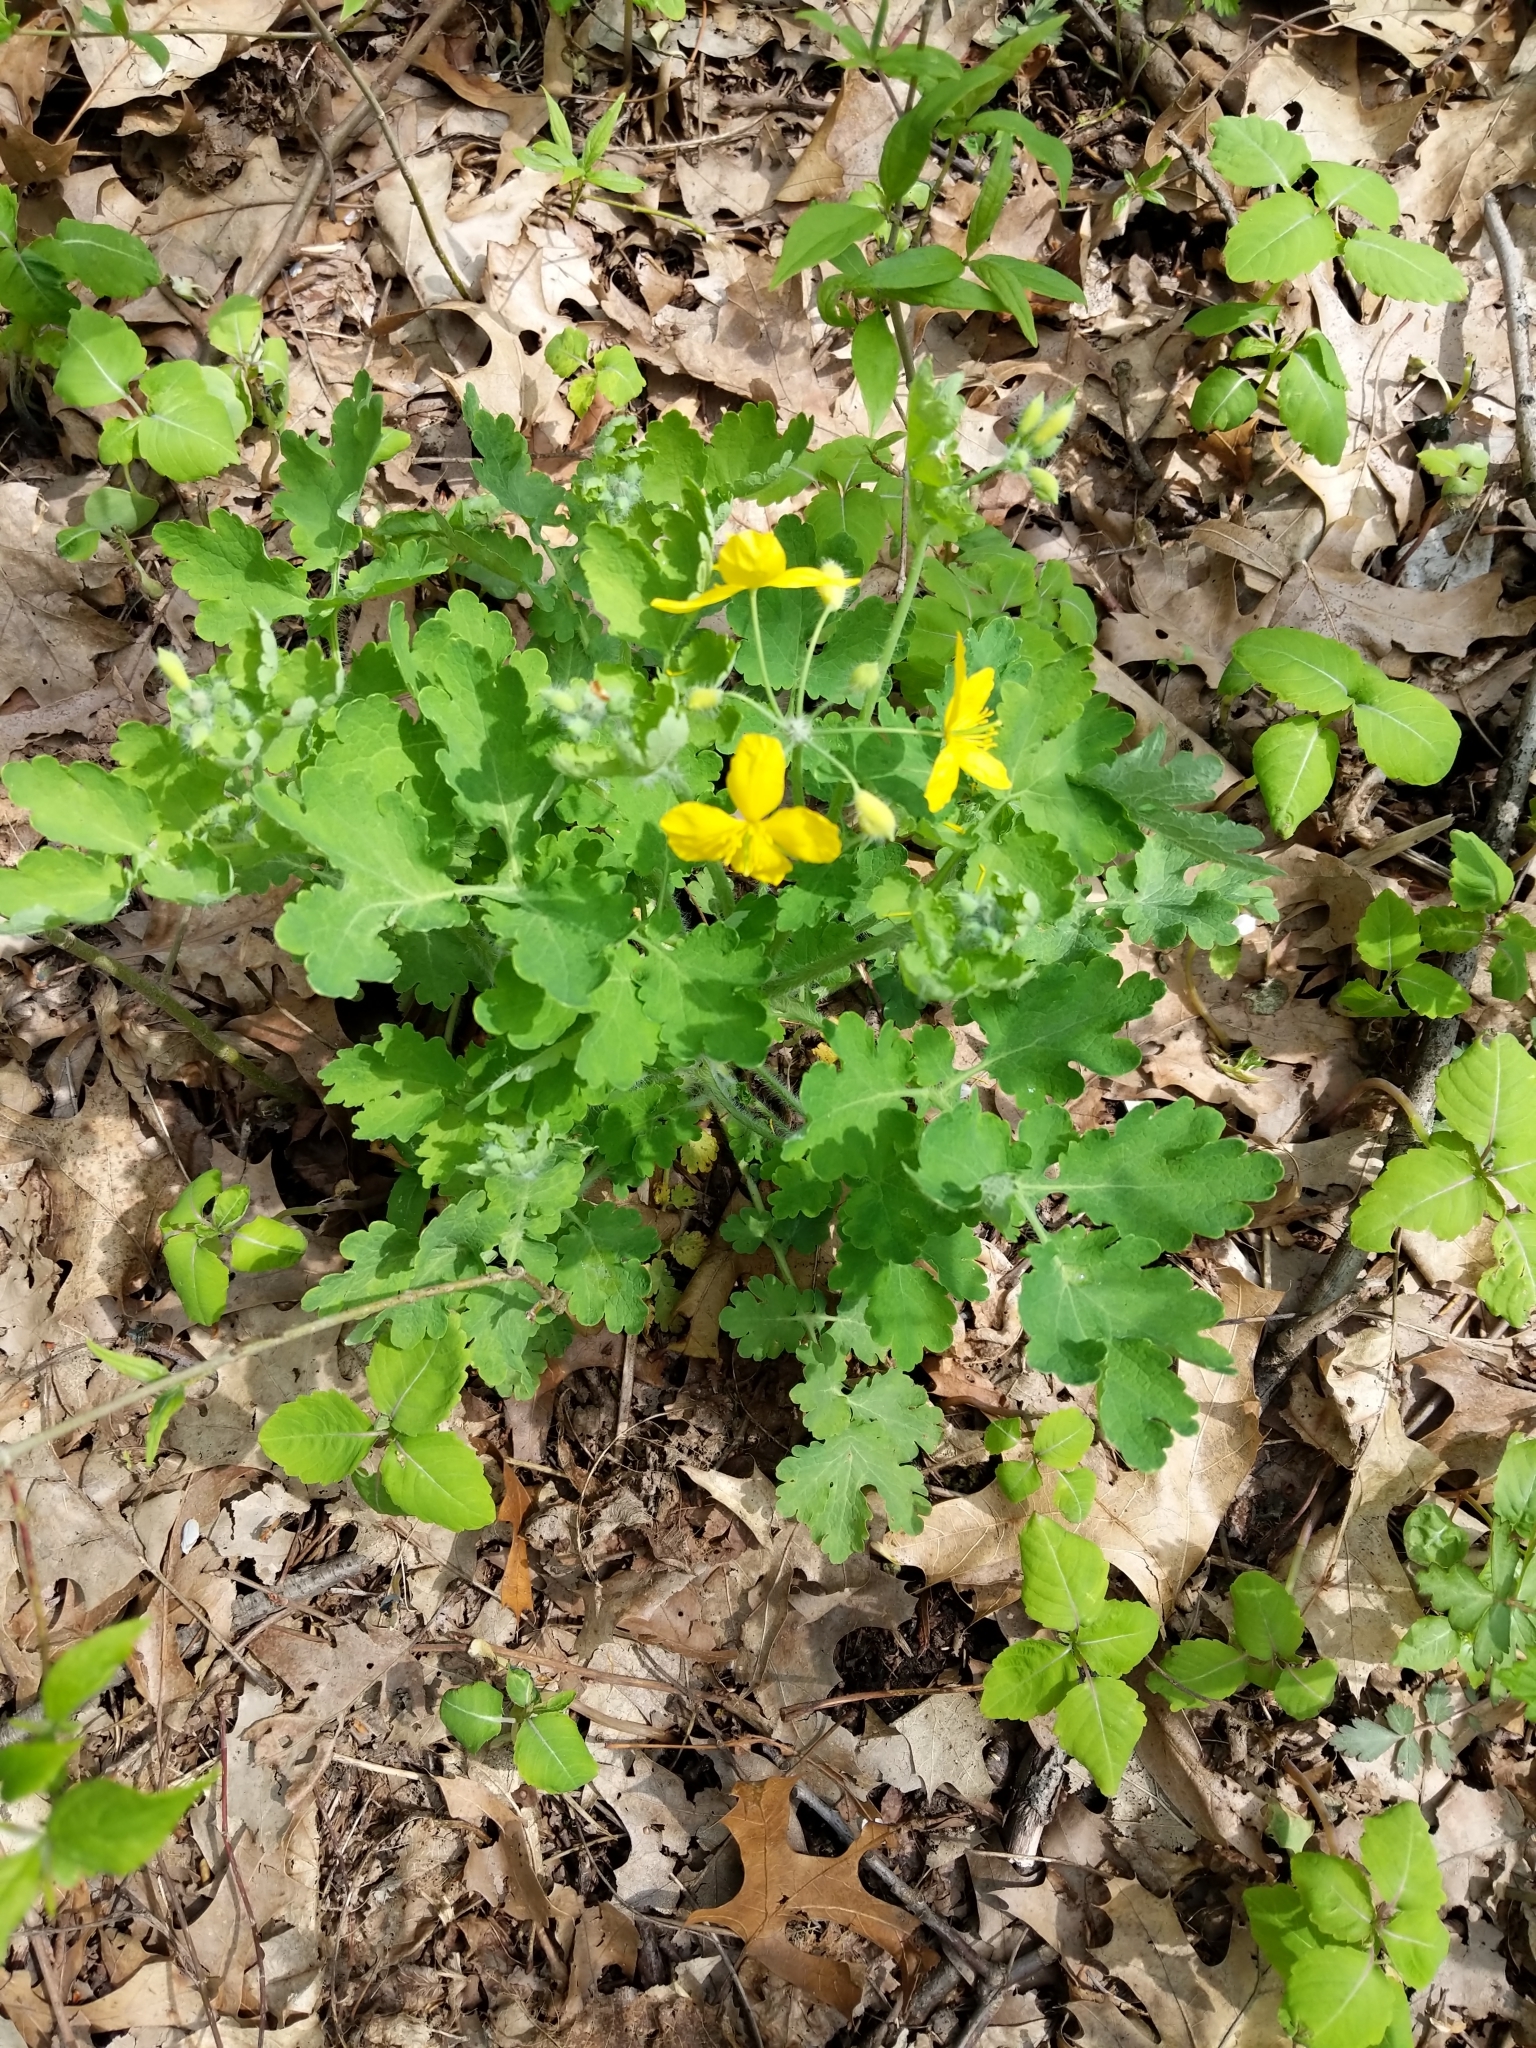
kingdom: Plantae
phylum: Tracheophyta
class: Magnoliopsida
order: Ranunculales
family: Papaveraceae
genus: Chelidonium
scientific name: Chelidonium majus
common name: Greater celandine
